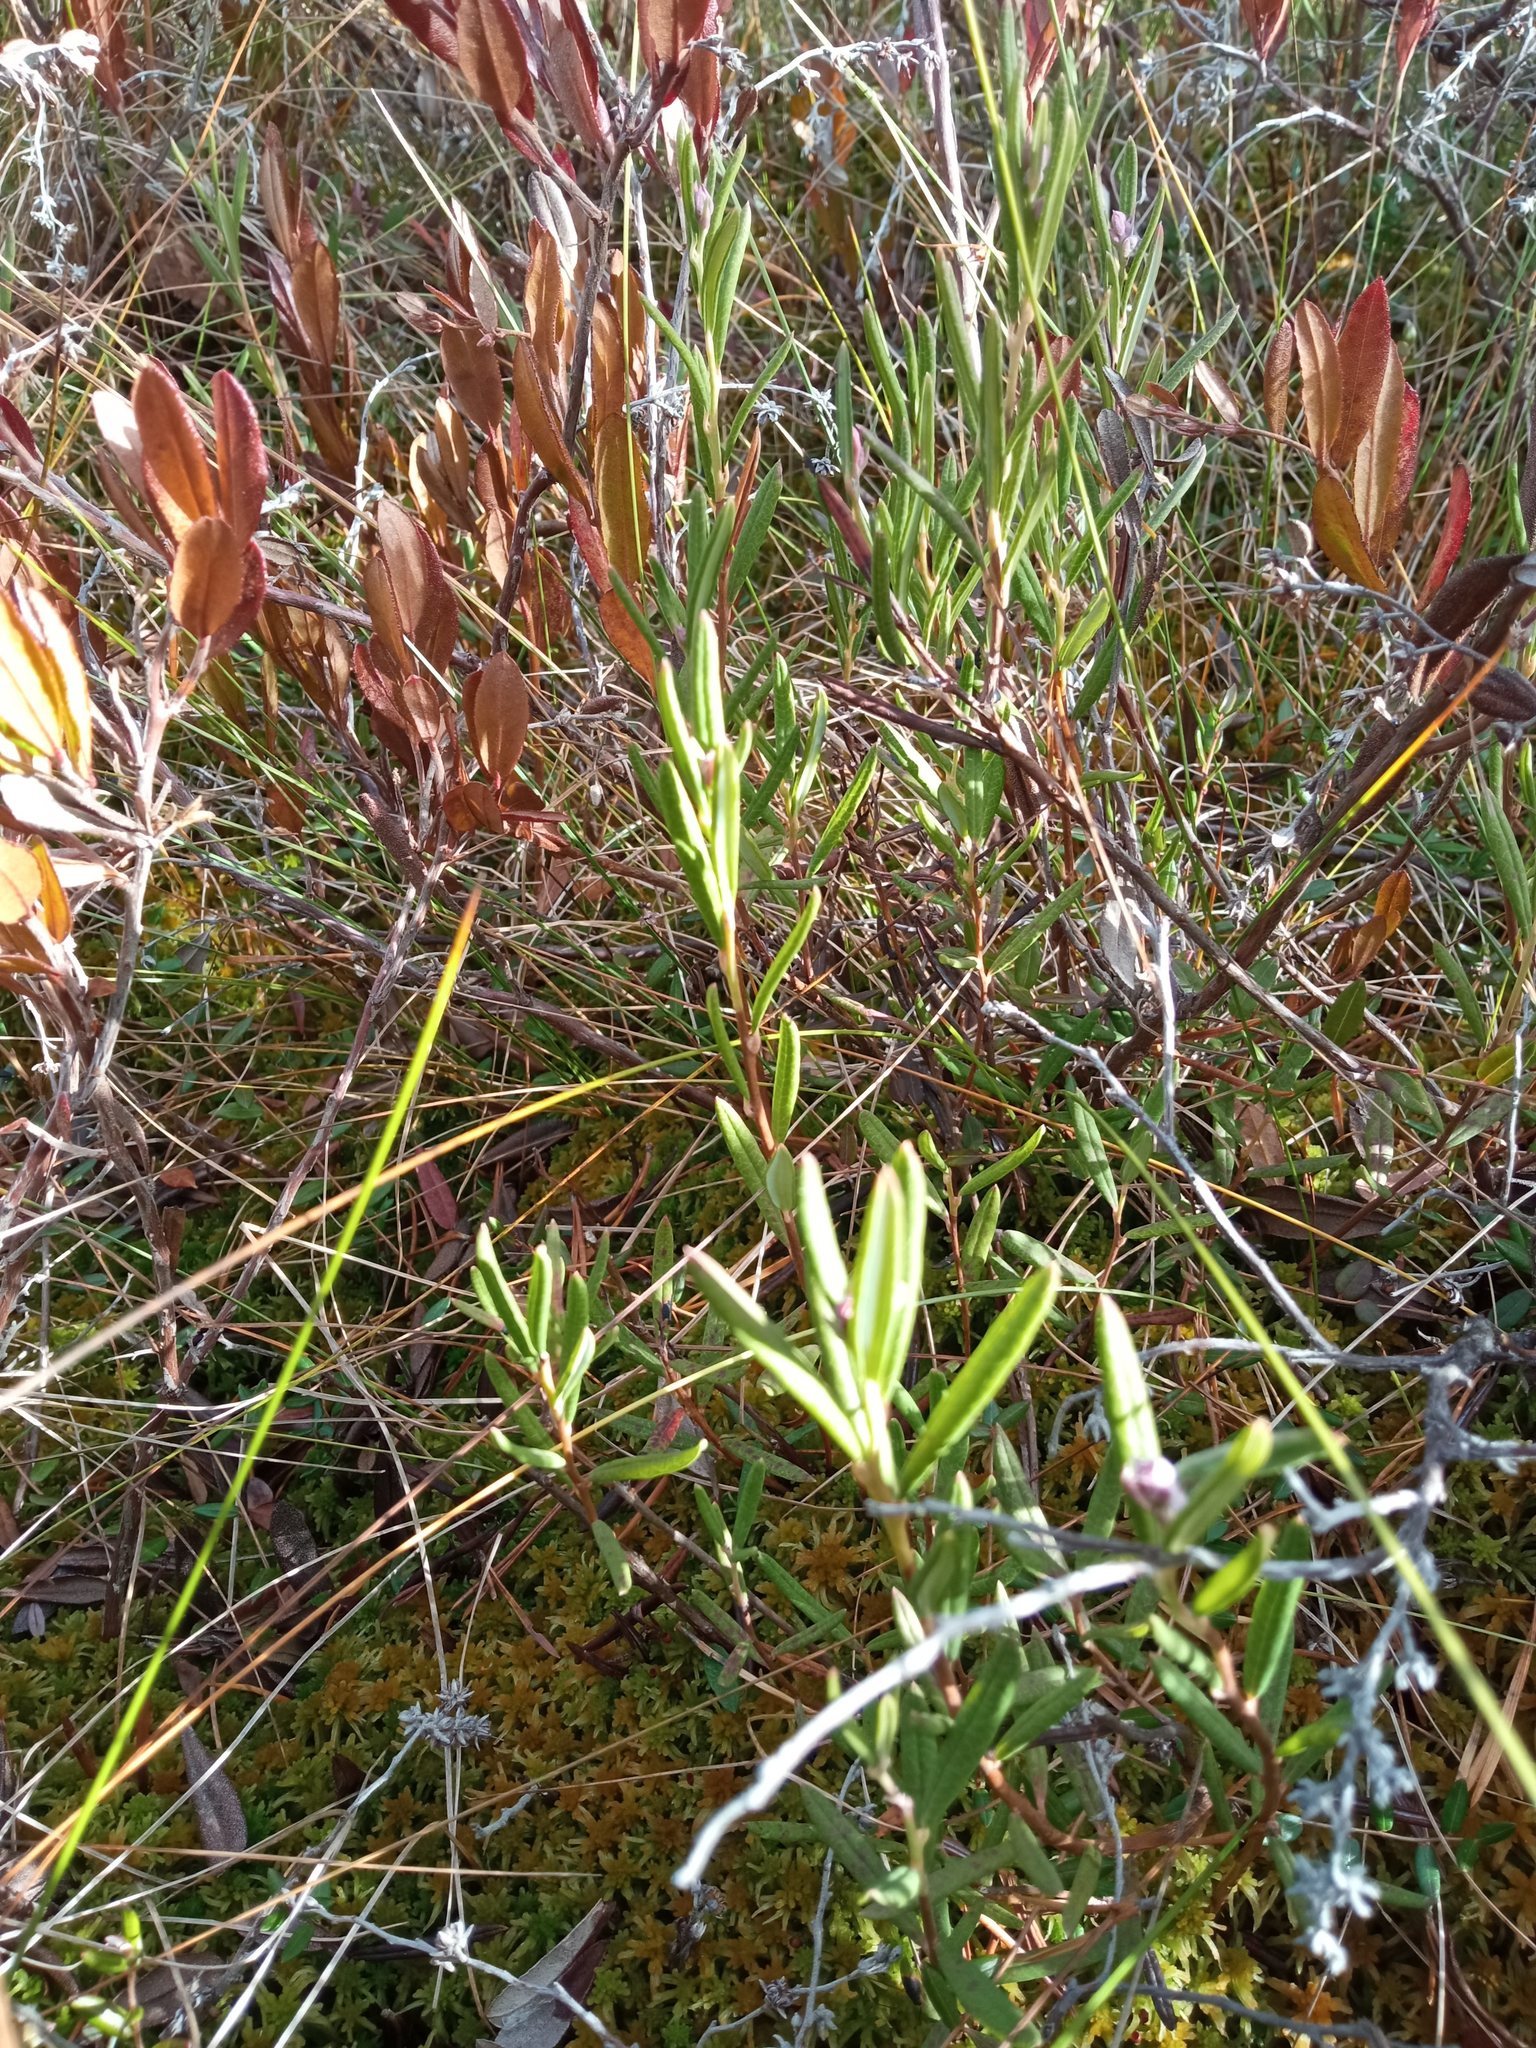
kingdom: Plantae
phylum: Tracheophyta
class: Magnoliopsida
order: Ericales
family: Ericaceae
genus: Andromeda
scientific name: Andromeda polifolia
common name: Bog-rosemary
